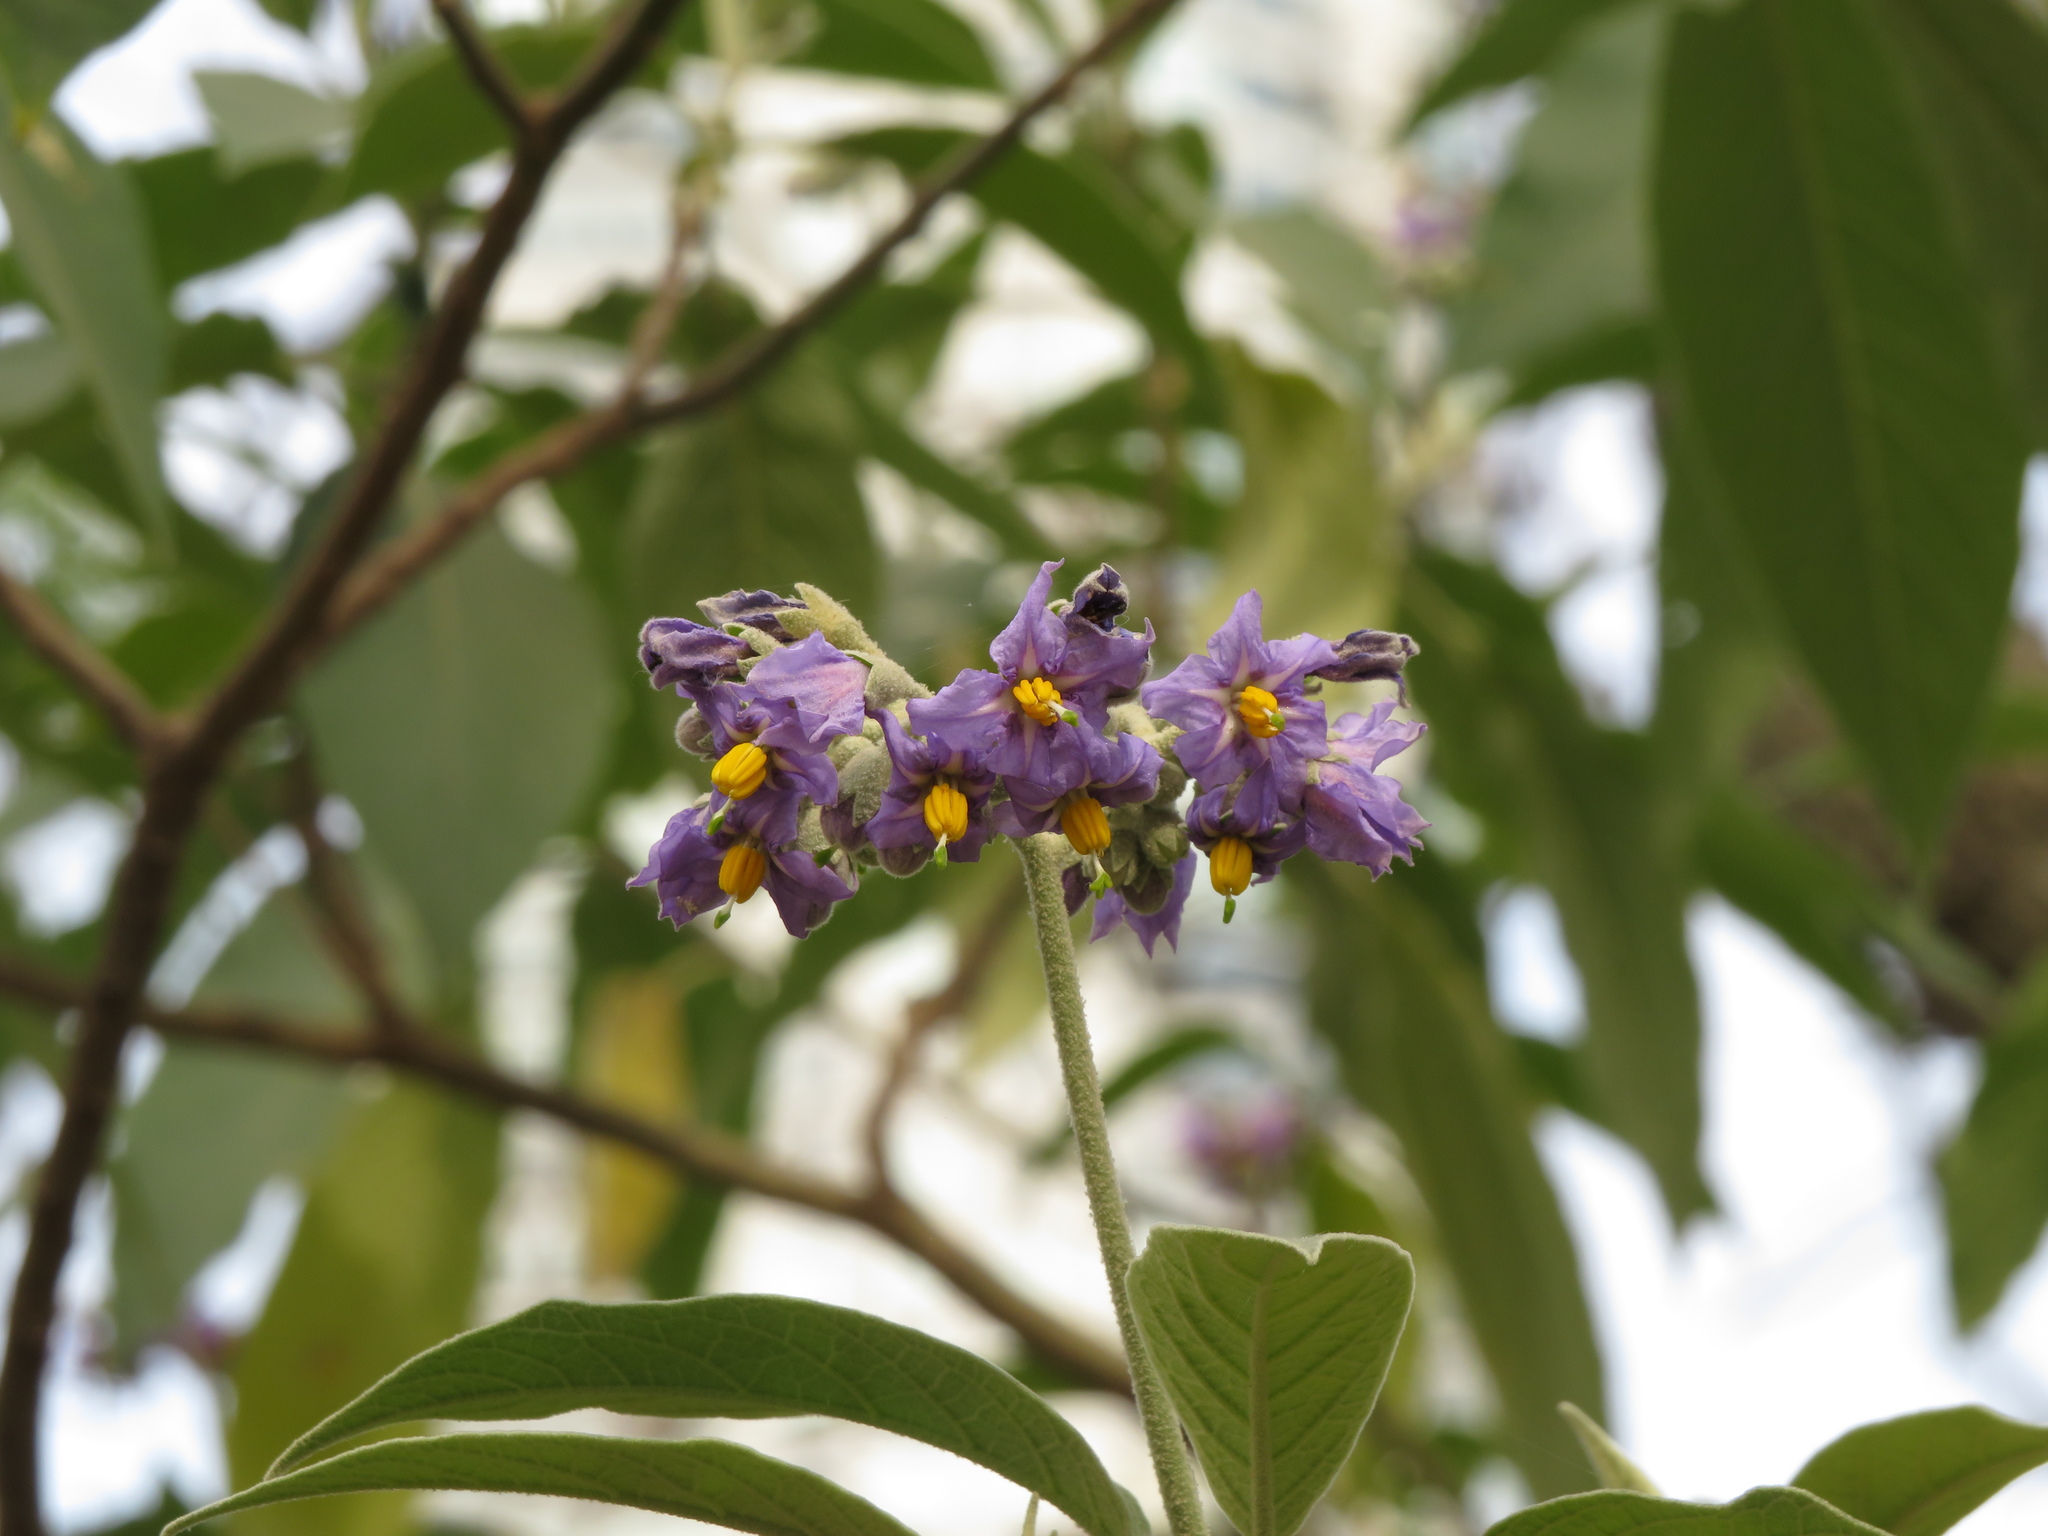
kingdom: Plantae
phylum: Tracheophyta
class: Magnoliopsida
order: Solanales
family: Solanaceae
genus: Solanum
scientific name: Solanum granulosoleprosum
